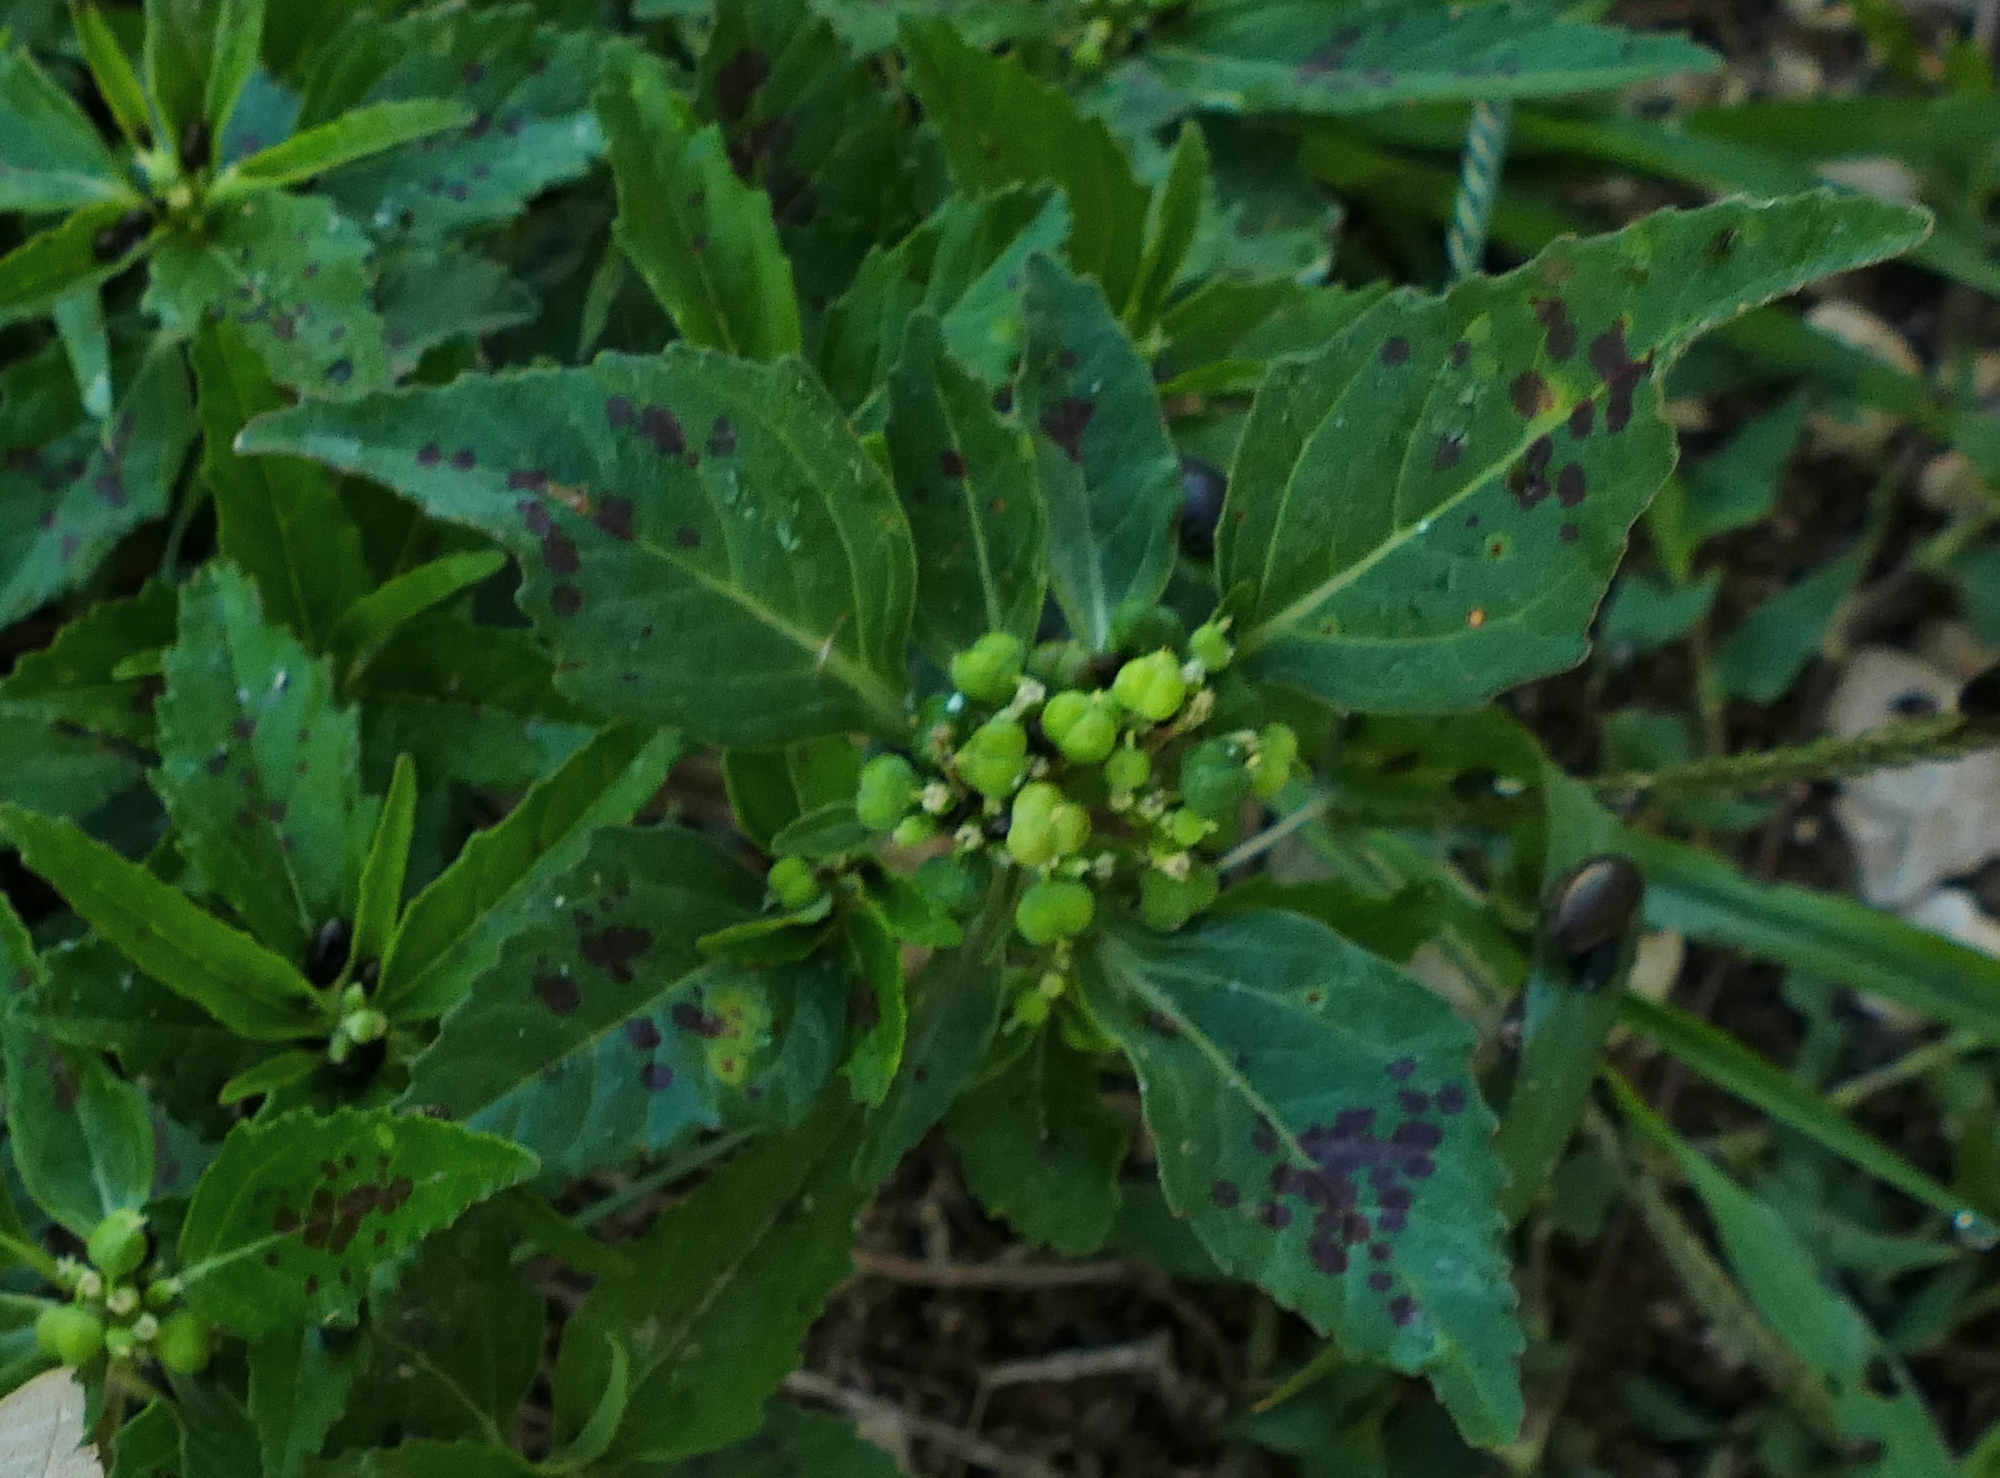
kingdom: Plantae
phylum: Tracheophyta
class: Magnoliopsida
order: Malpighiales
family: Euphorbiaceae
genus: Euphorbia
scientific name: Euphorbia dentata
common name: Dentate spurge
